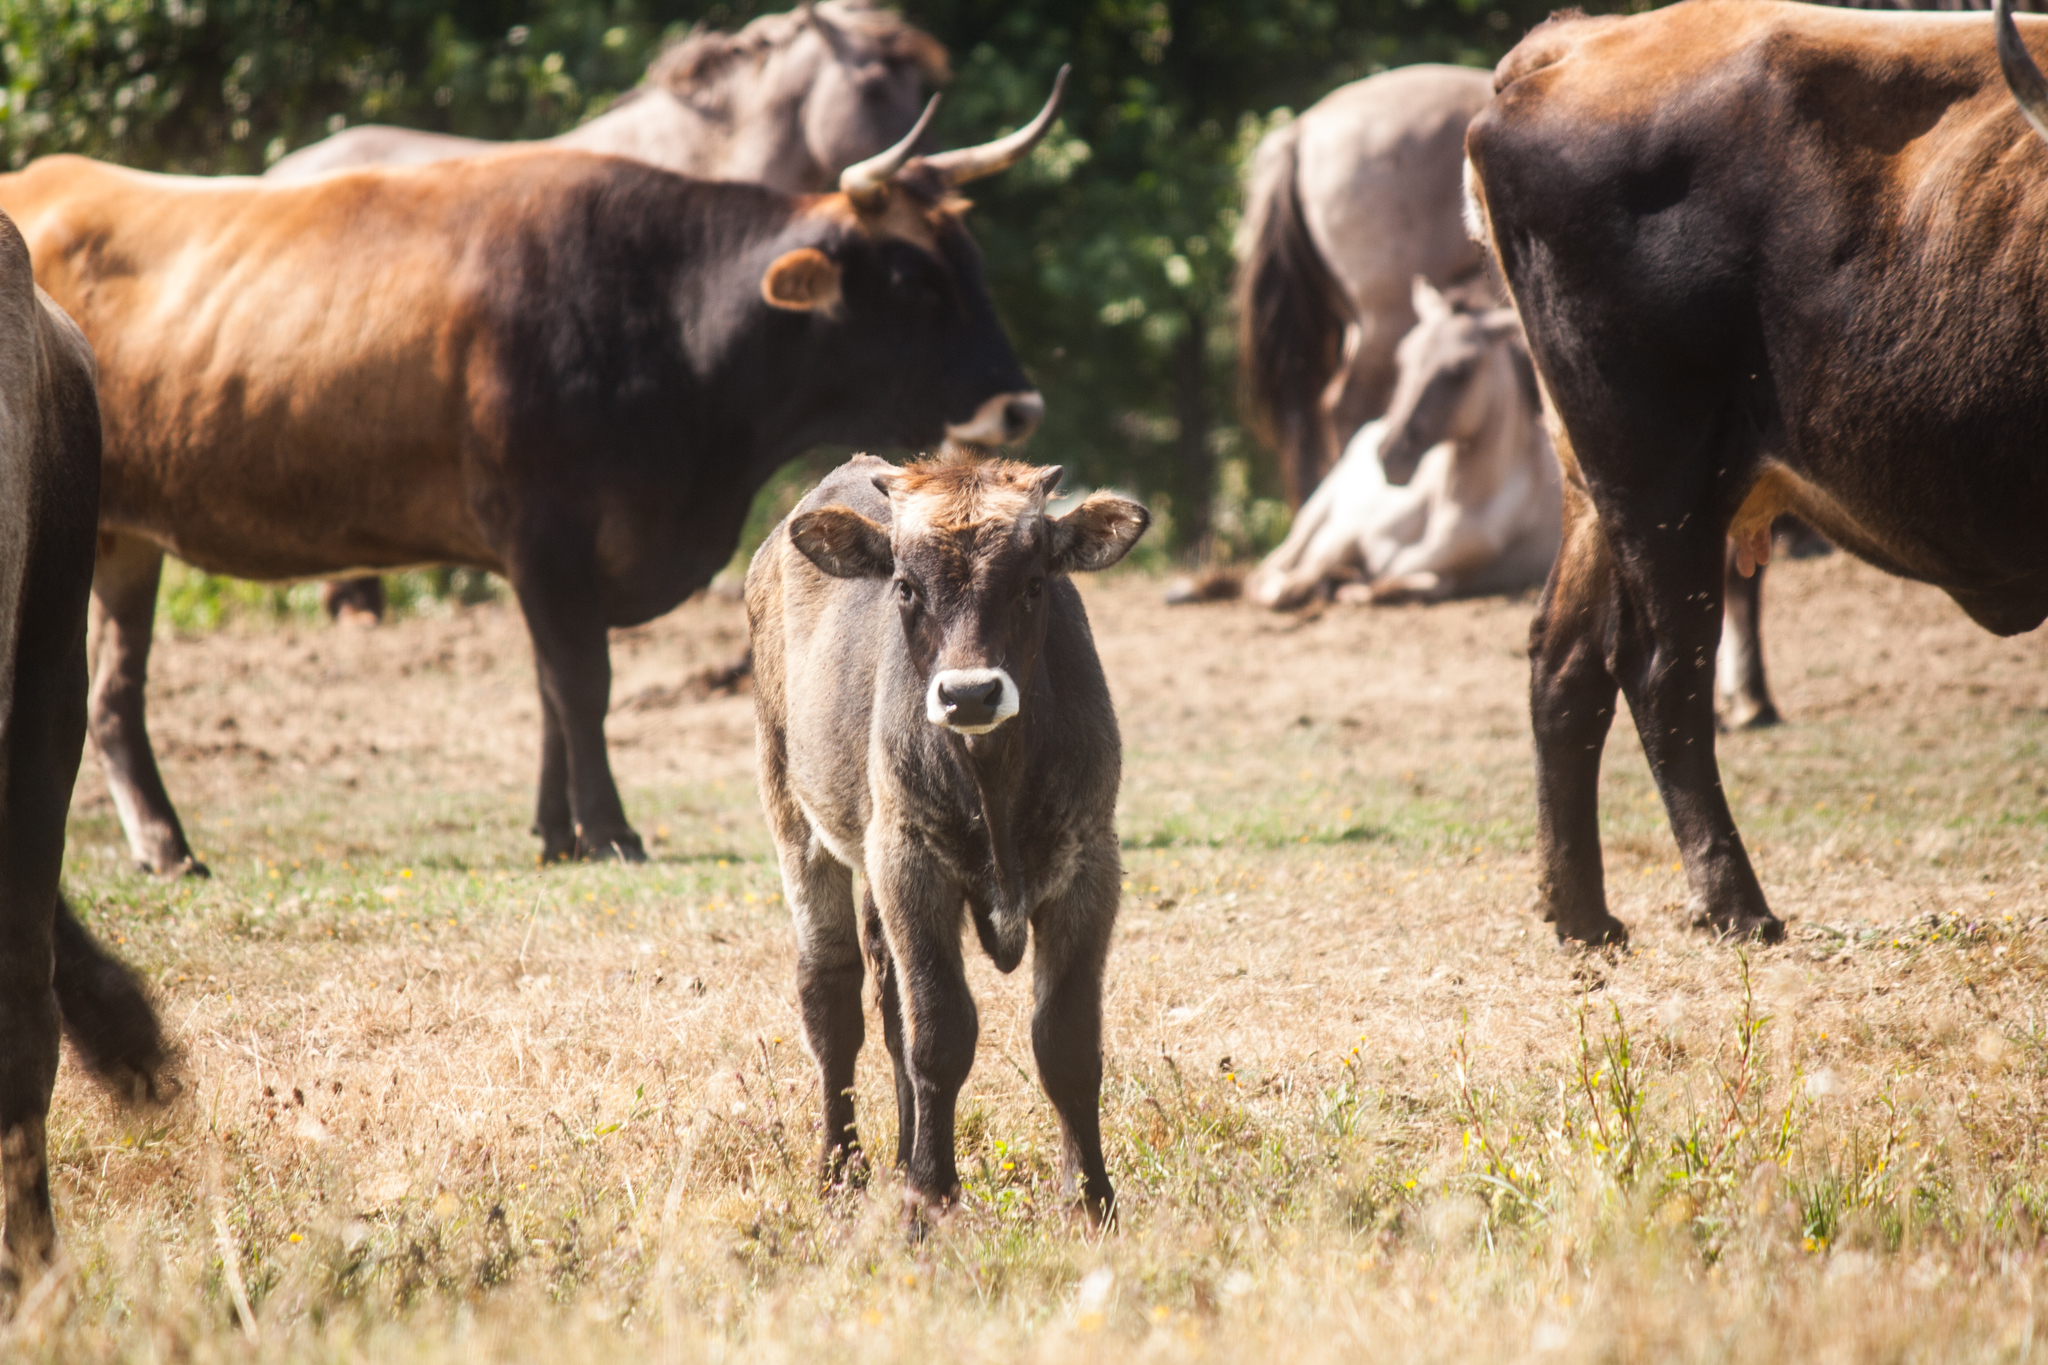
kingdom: Animalia
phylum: Chordata
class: Mammalia
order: Artiodactyla
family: Bovidae
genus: Bos
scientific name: Bos taurus
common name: Domesticated cattle
